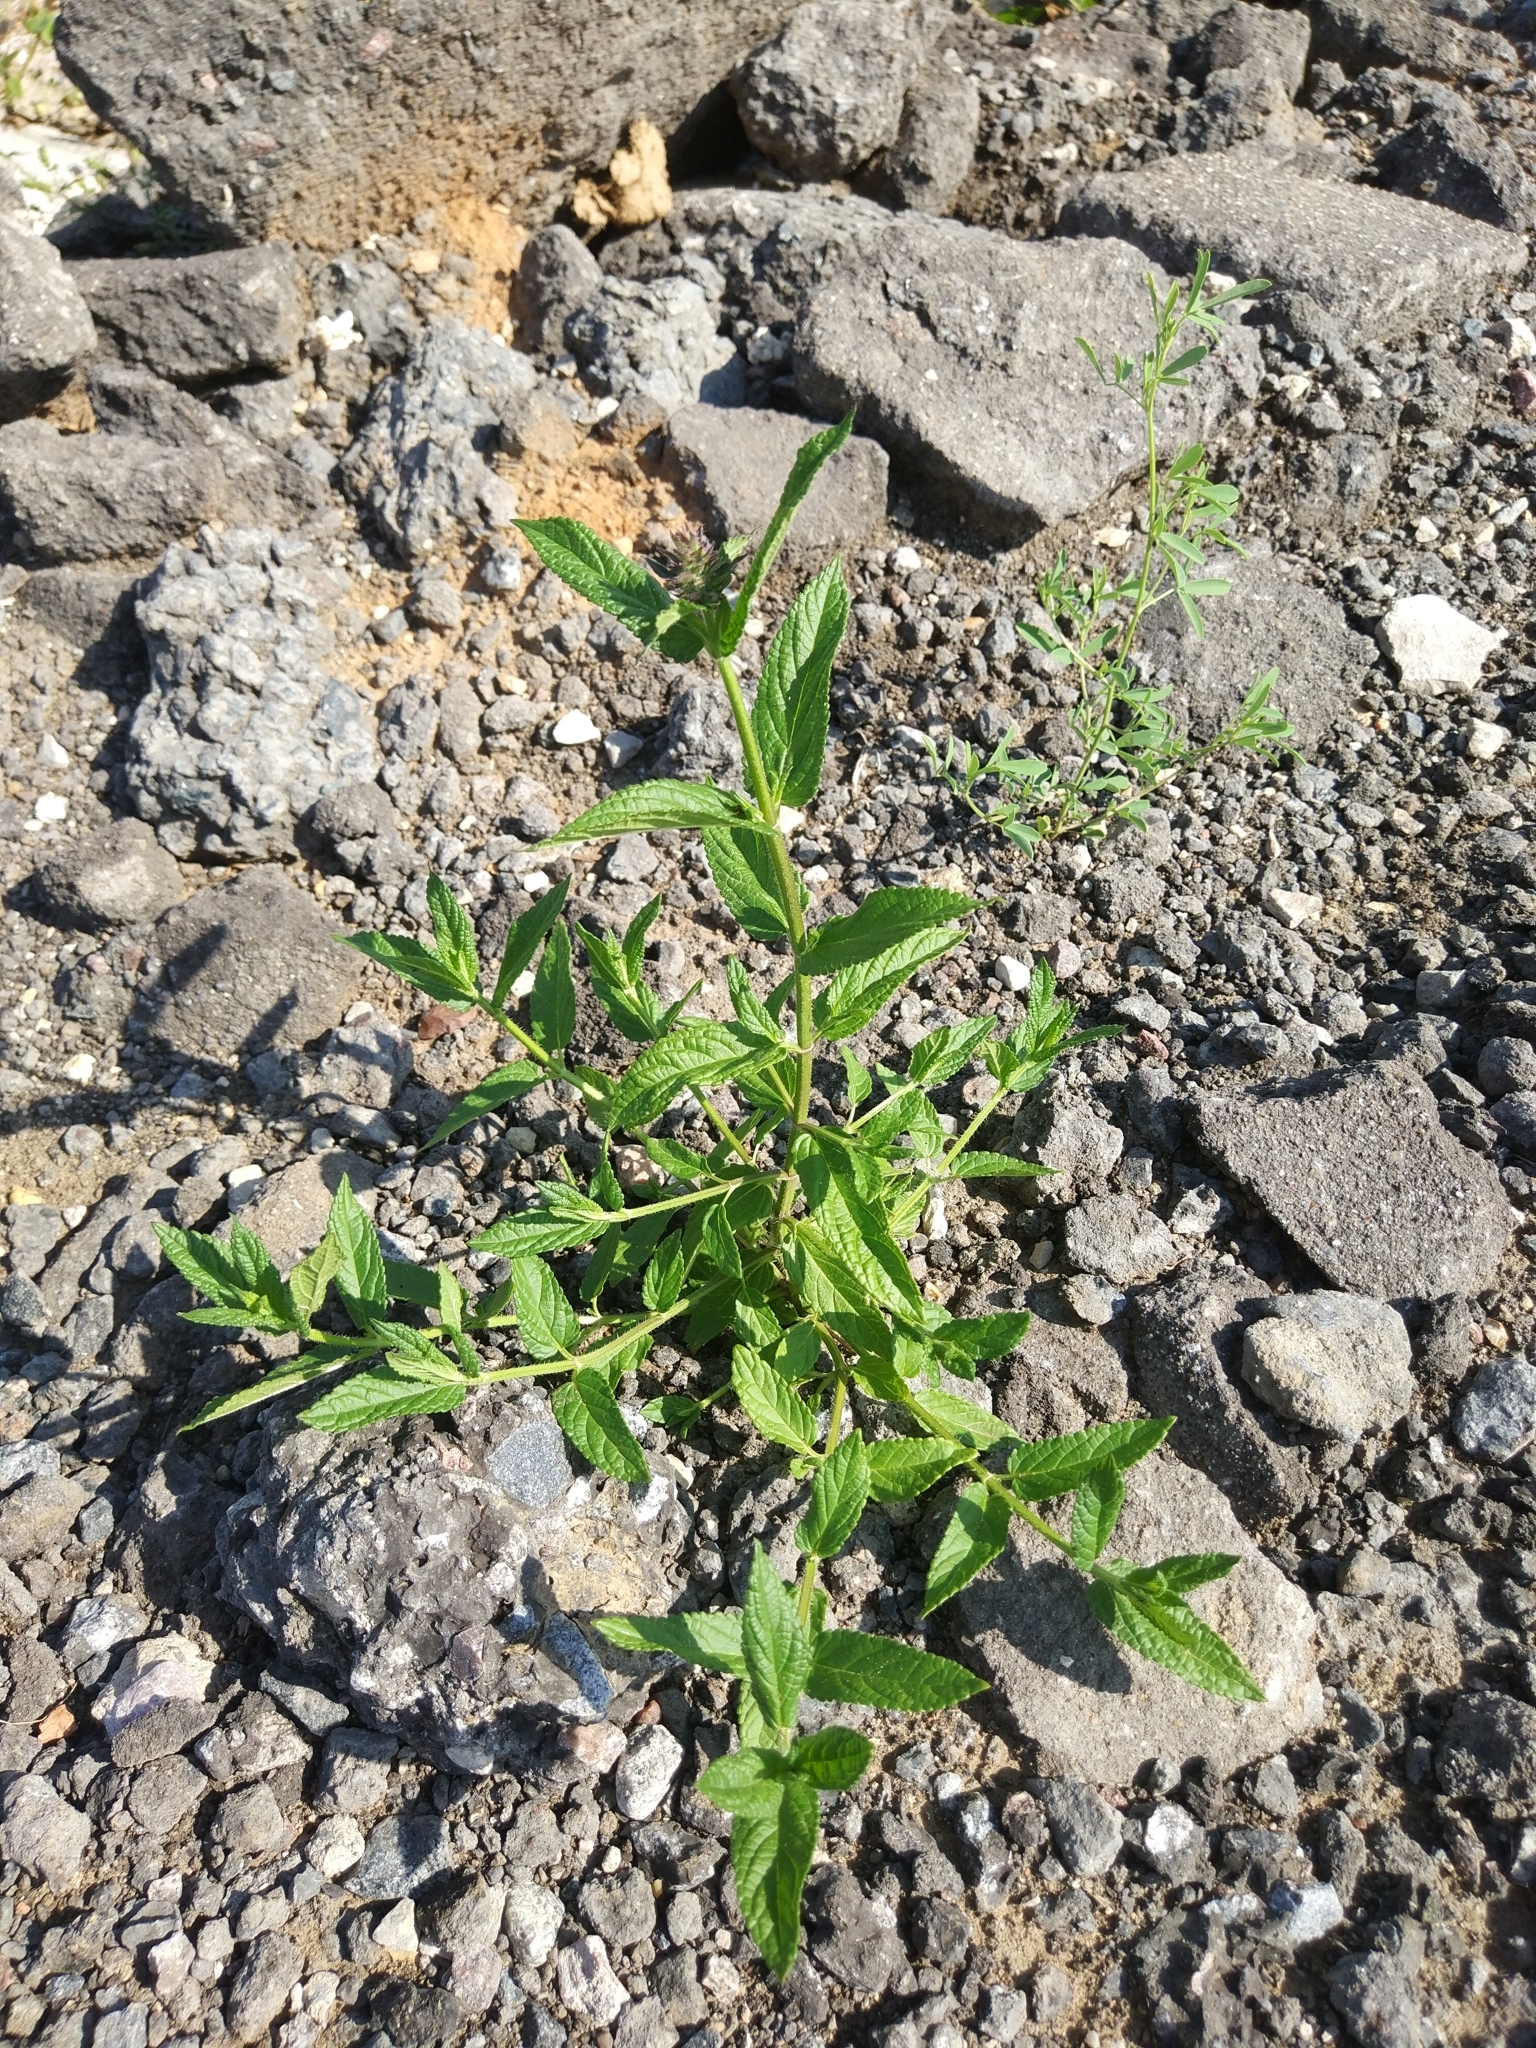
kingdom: Plantae
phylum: Tracheophyta
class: Magnoliopsida
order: Lamiales
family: Lamiaceae
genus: Stachys
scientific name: Stachys palustris
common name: Marsh woundwort
